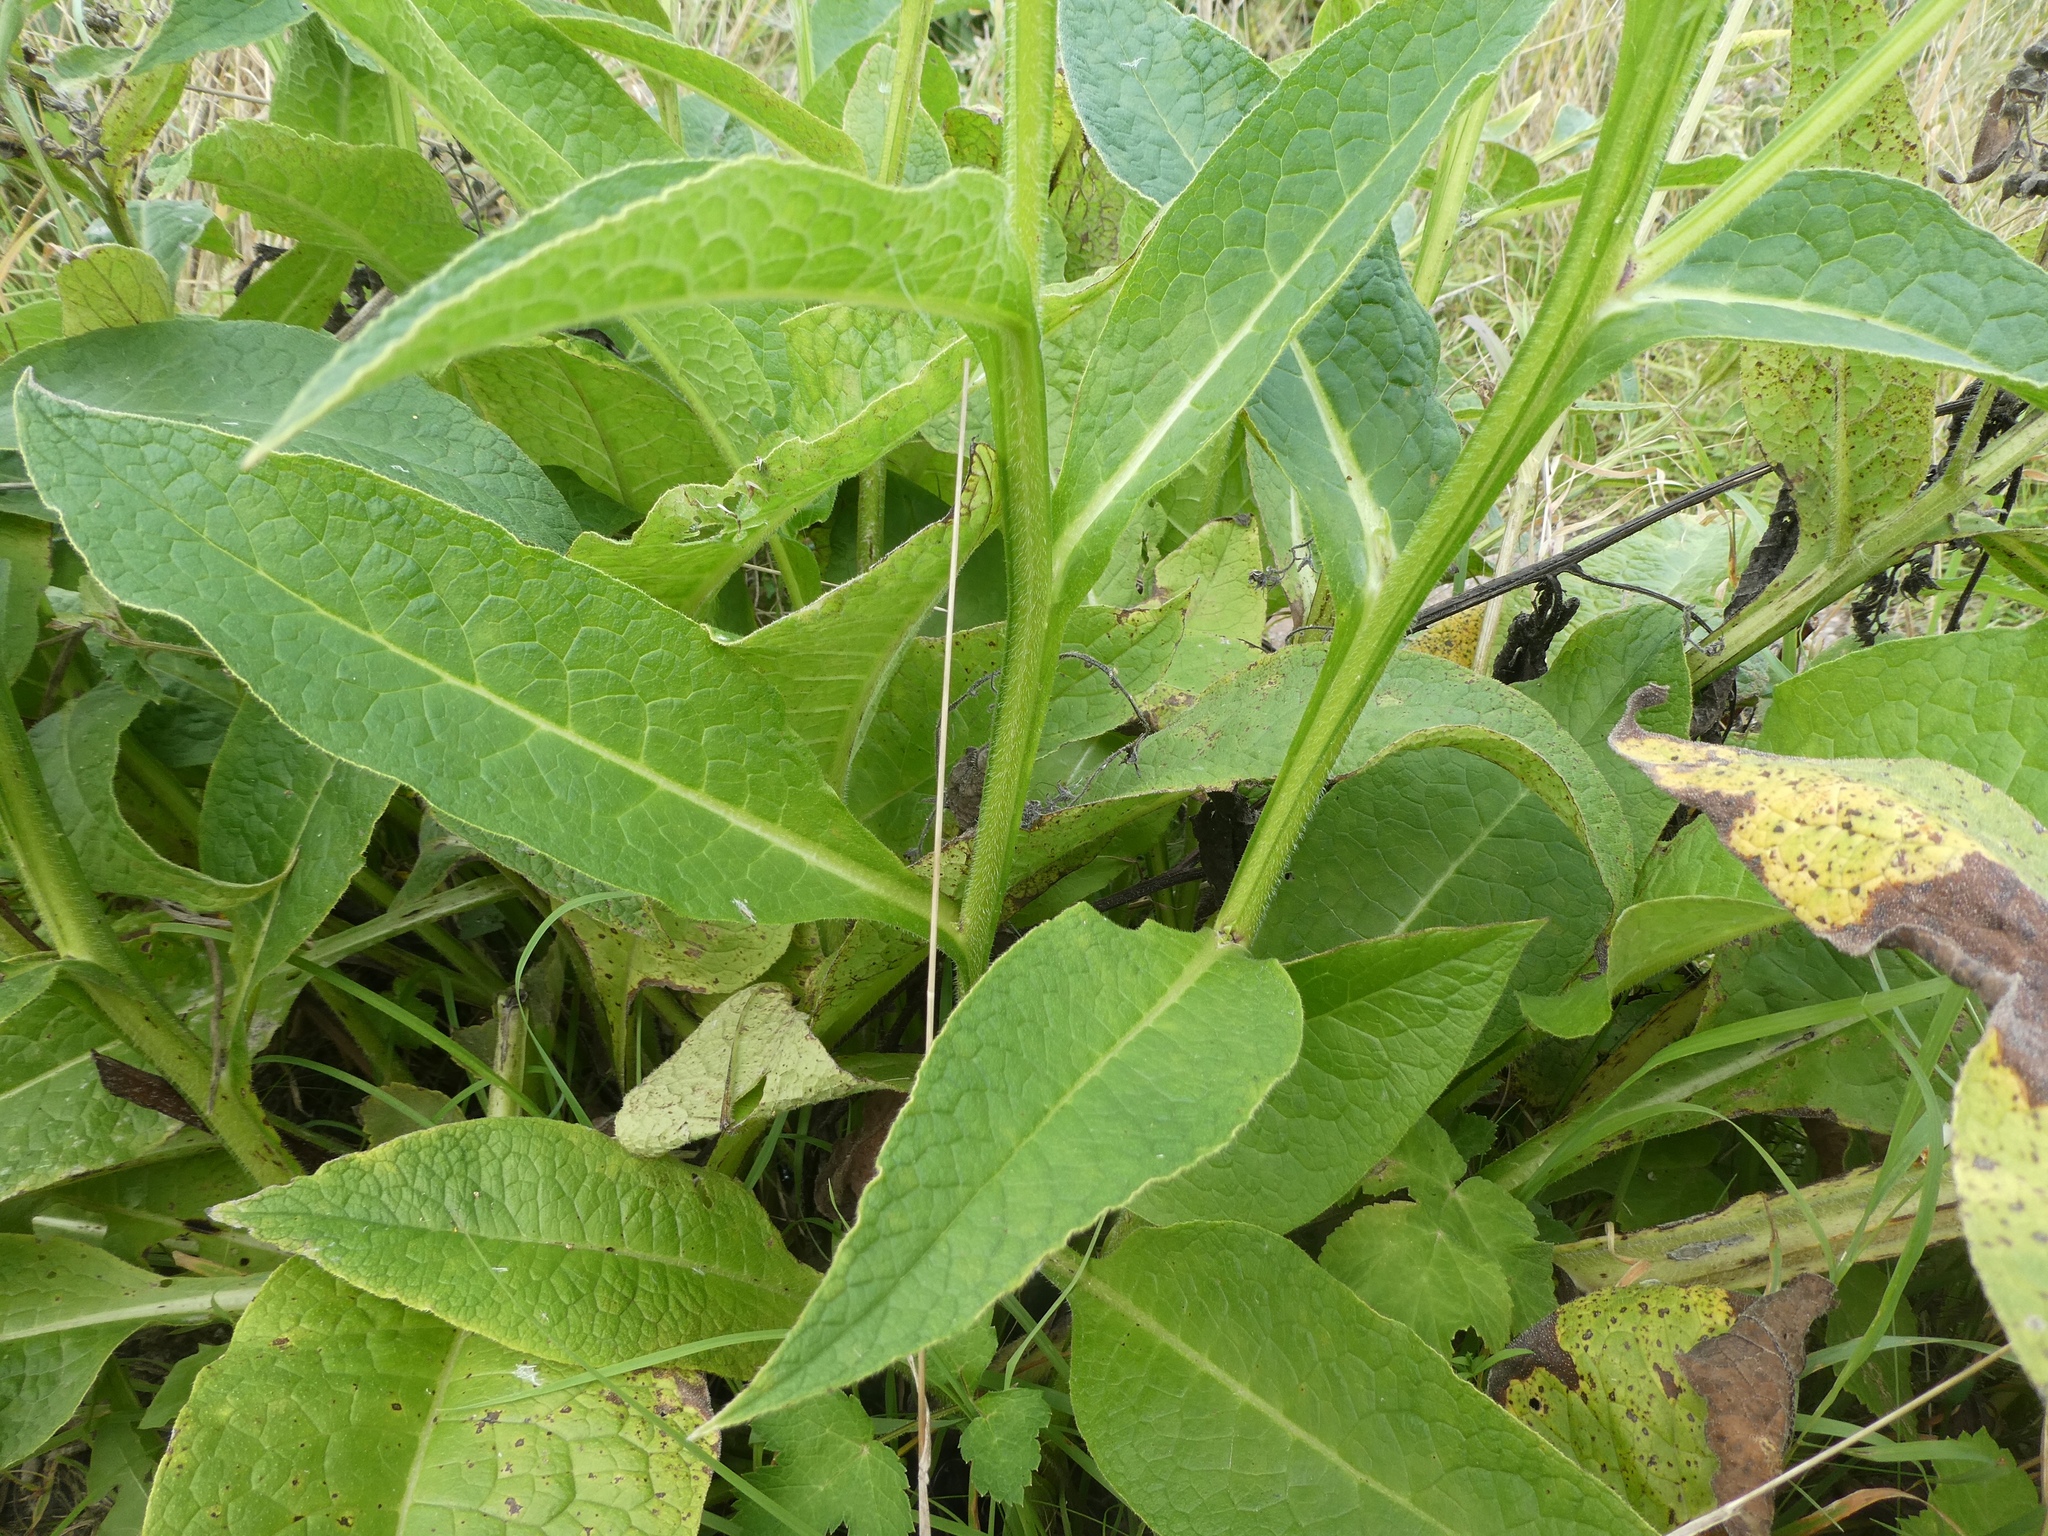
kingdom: Plantae
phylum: Tracheophyta
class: Magnoliopsida
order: Boraginales
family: Boraginaceae
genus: Symphytum
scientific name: Symphytum officinale
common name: Common comfrey
